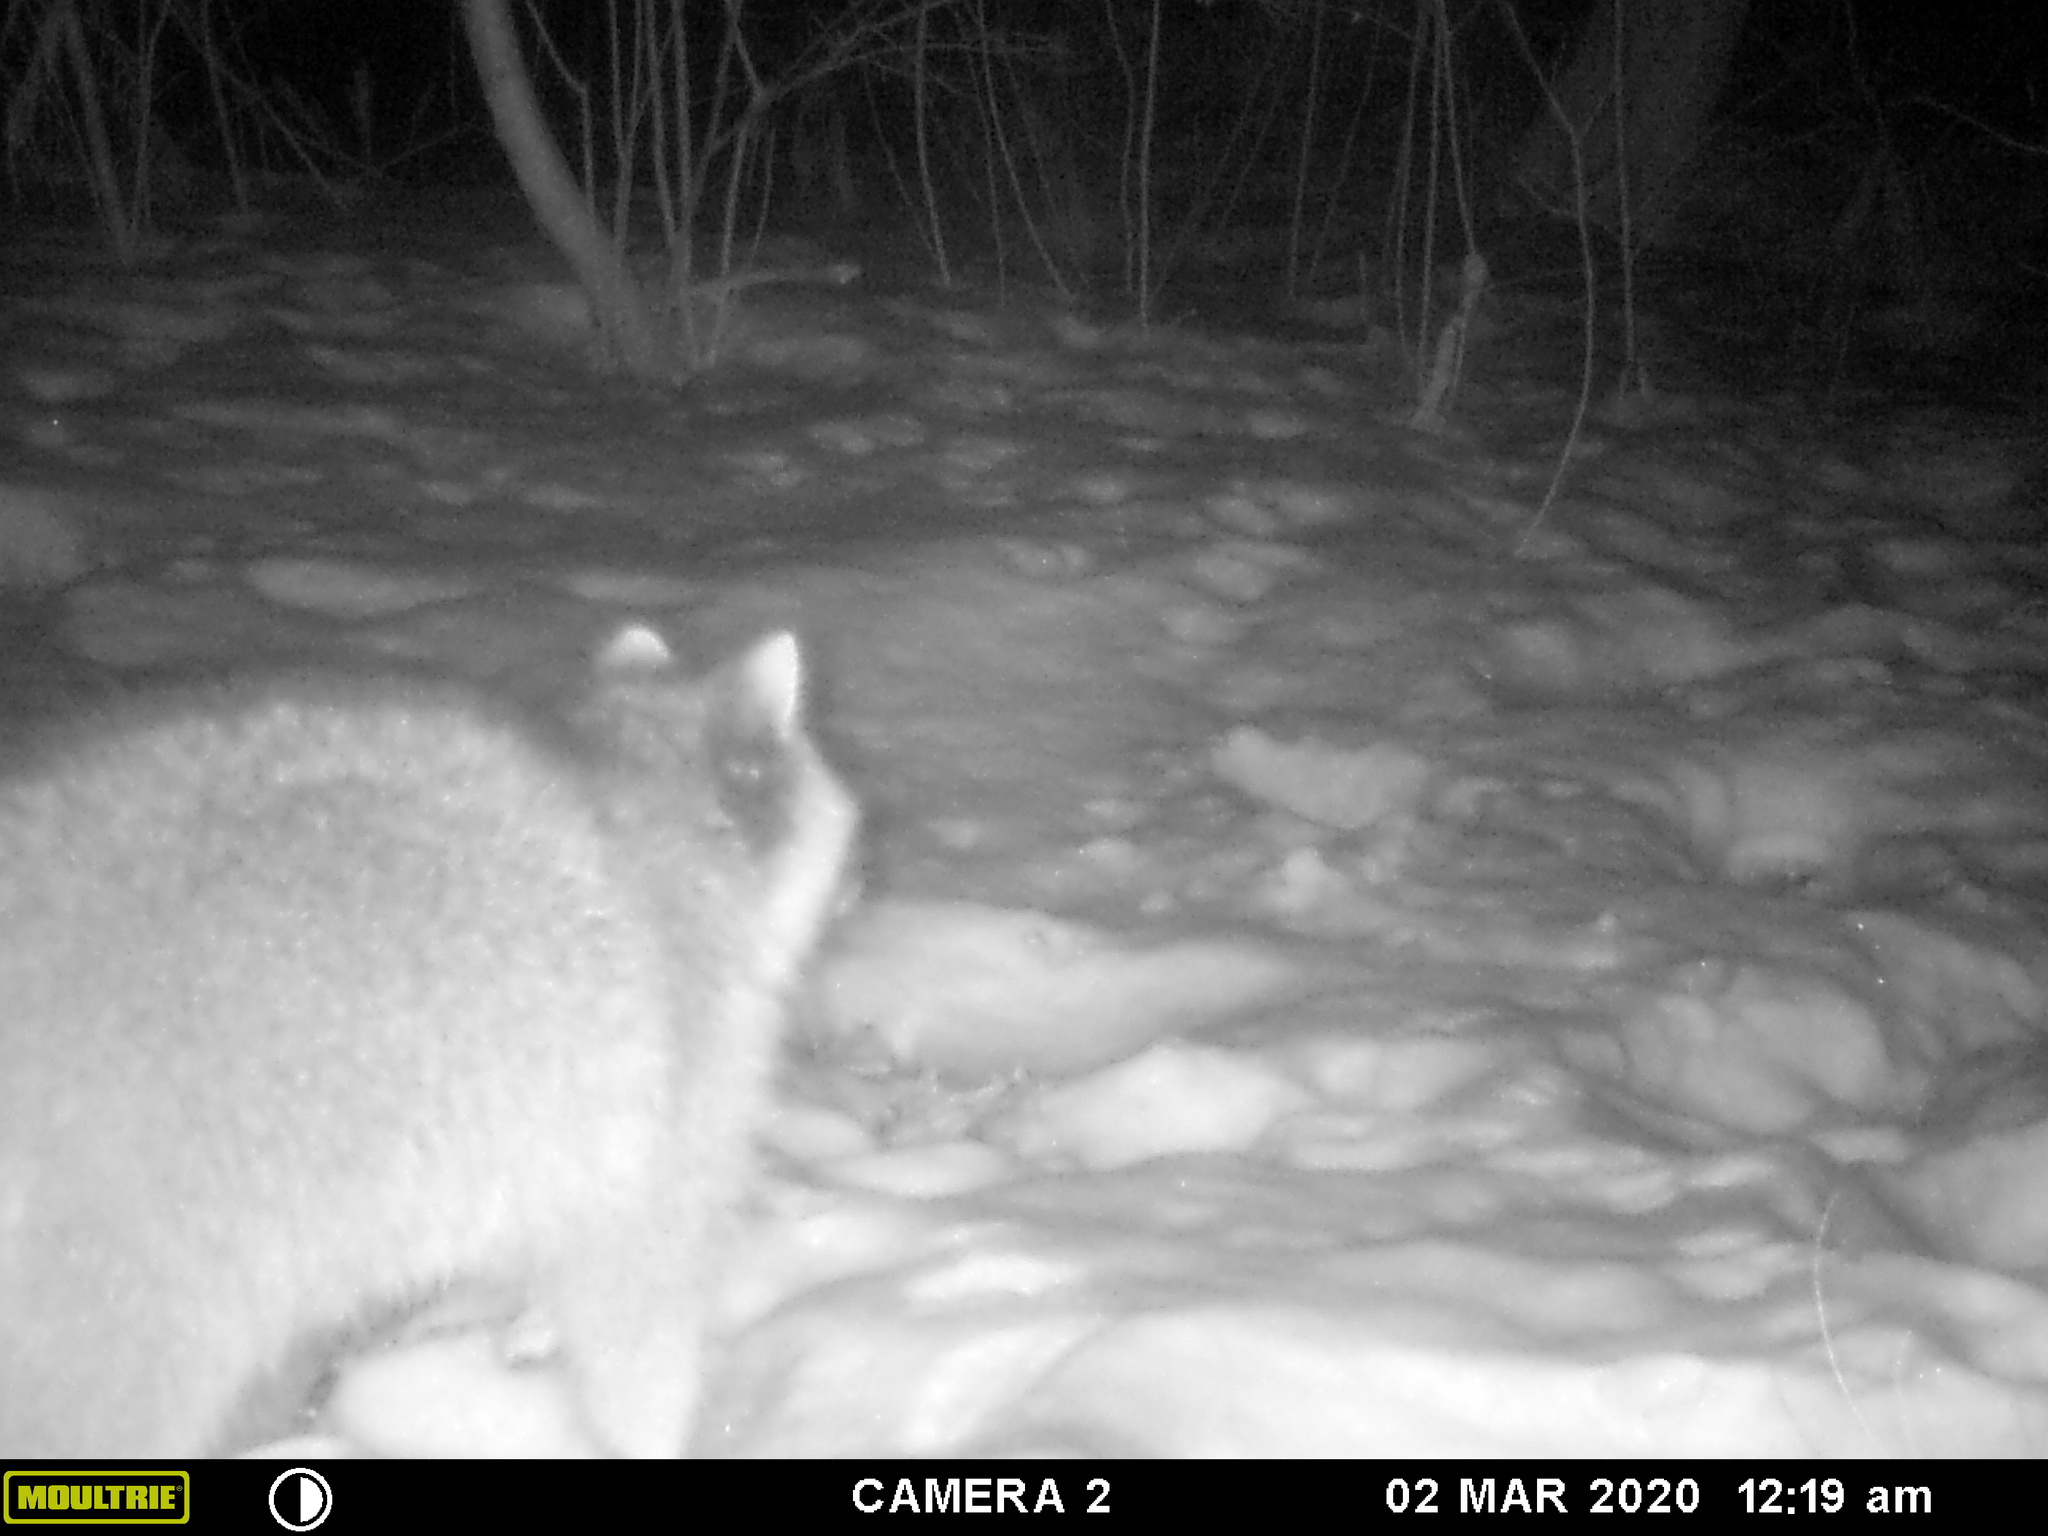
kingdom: Animalia
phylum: Chordata
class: Mammalia
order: Carnivora
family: Procyonidae
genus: Procyon
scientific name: Procyon lotor
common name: Raccoon
